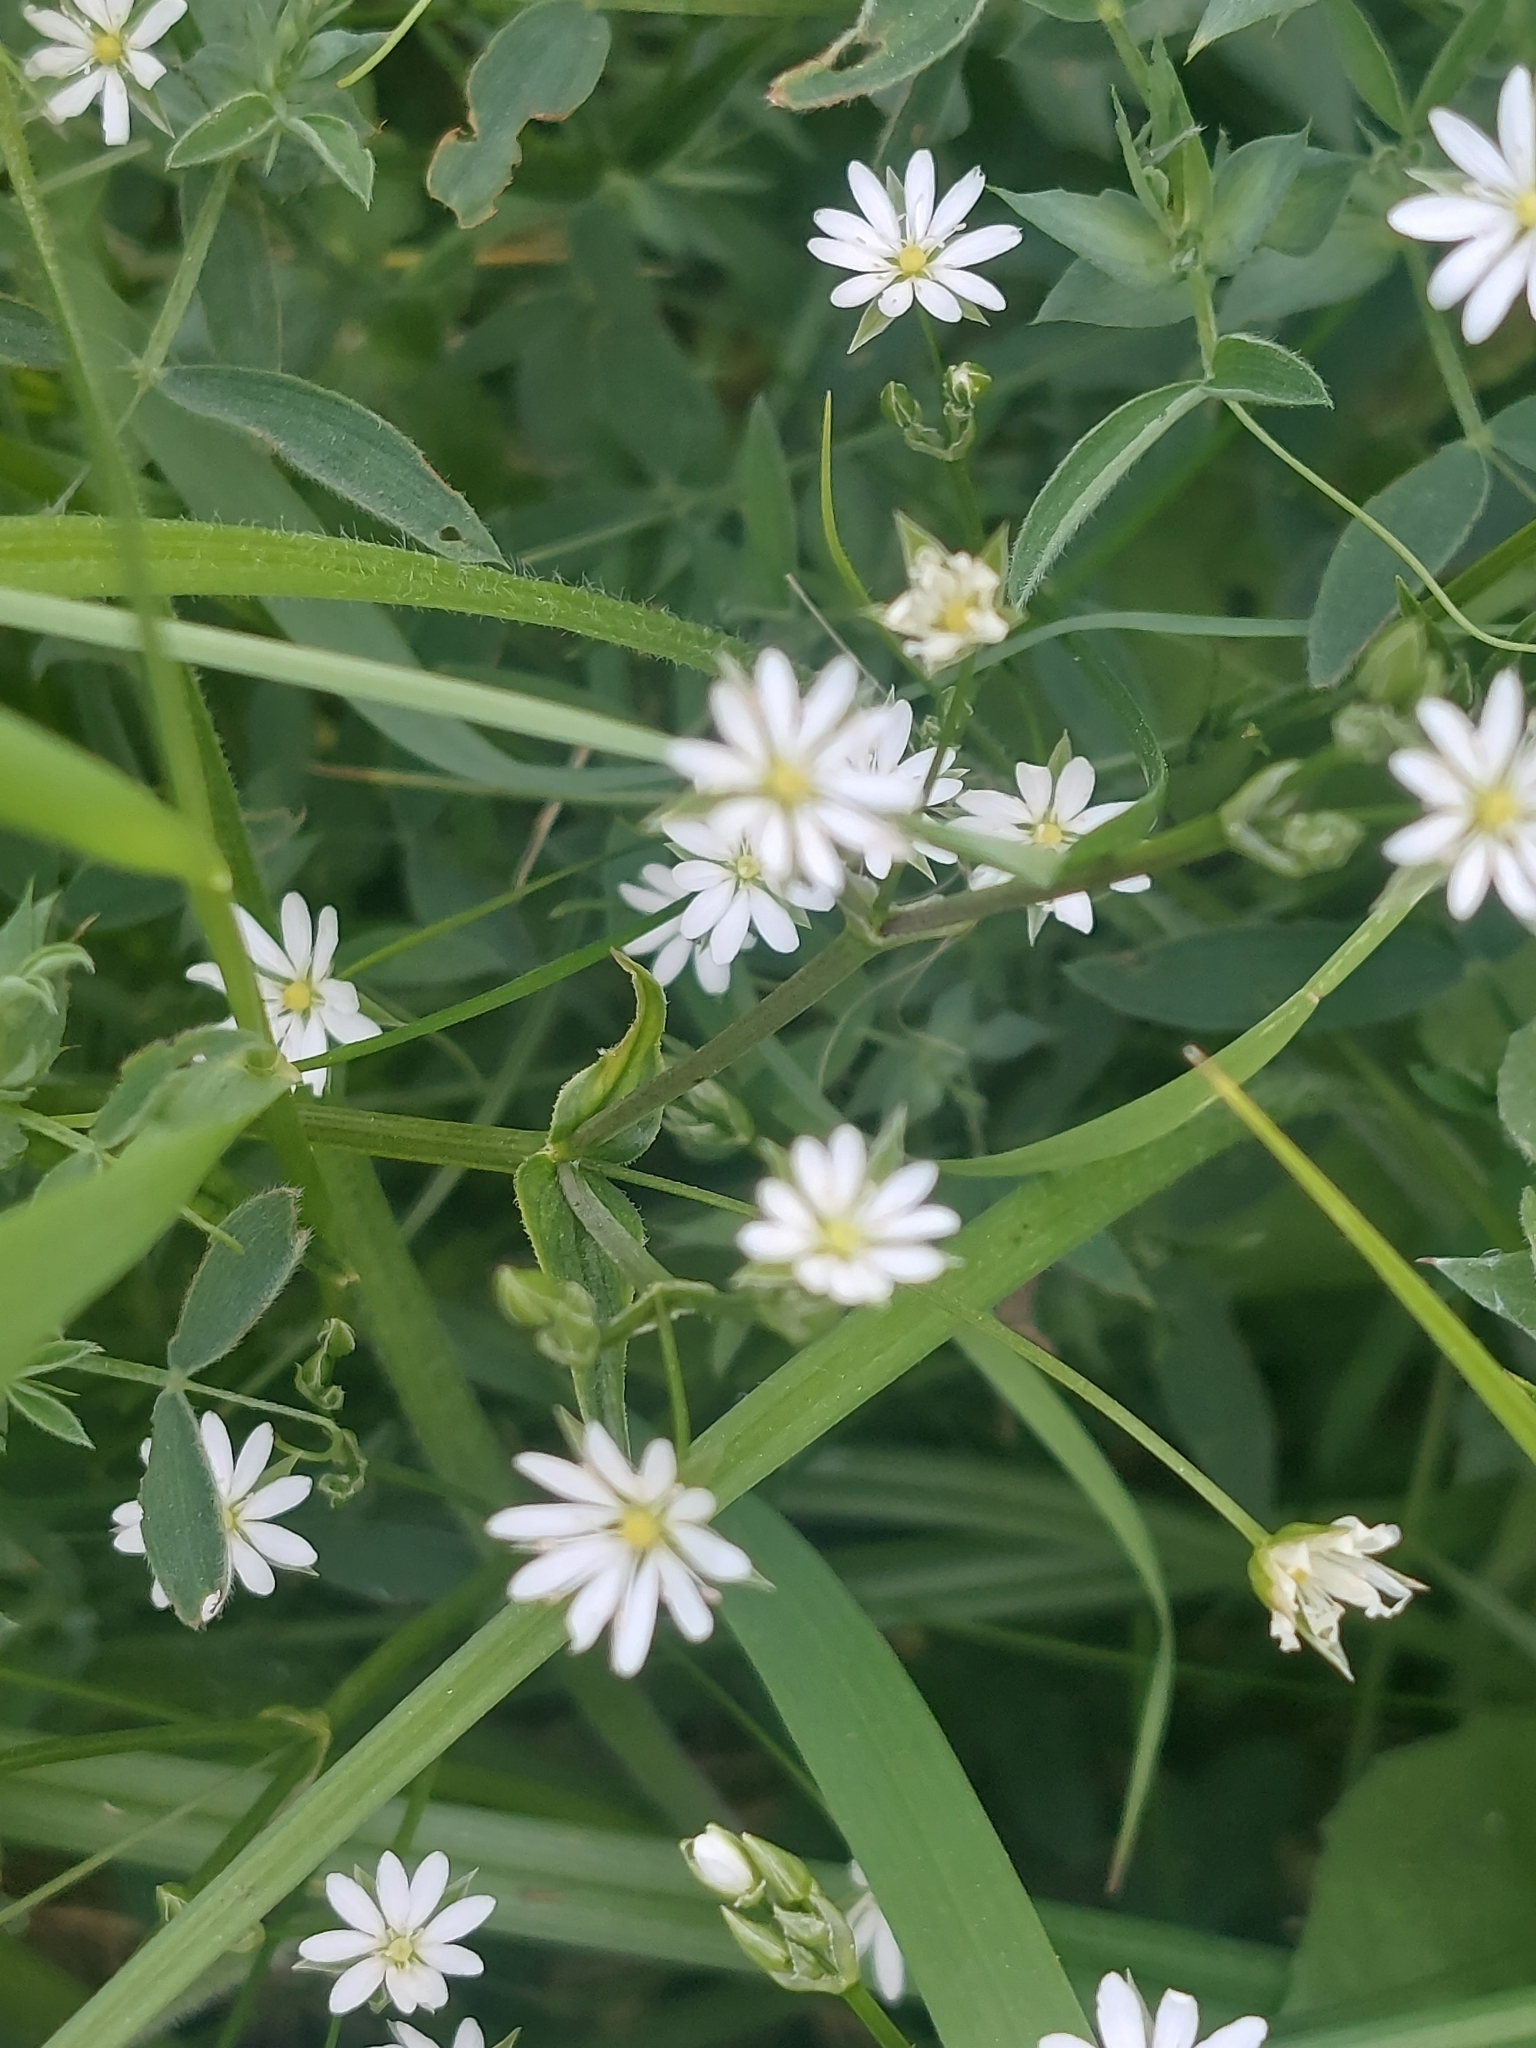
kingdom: Plantae
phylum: Tracheophyta
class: Magnoliopsida
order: Caryophyllales
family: Caryophyllaceae
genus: Stellaria
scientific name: Stellaria graminea
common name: Grass-like starwort
